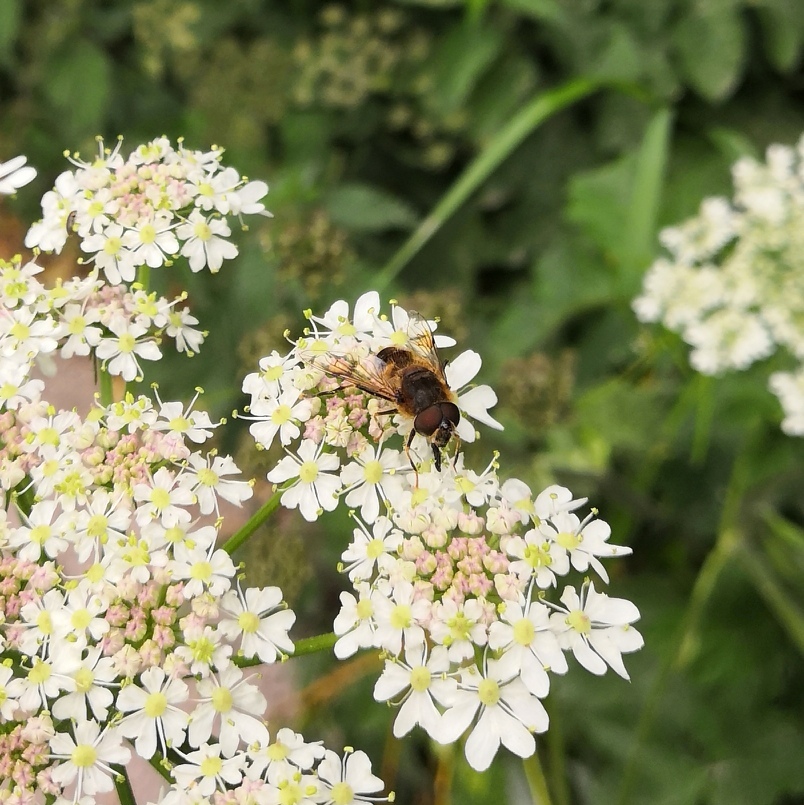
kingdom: Animalia
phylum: Arthropoda
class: Insecta
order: Diptera
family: Syrphidae
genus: Eristalis
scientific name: Eristalis pertinax
